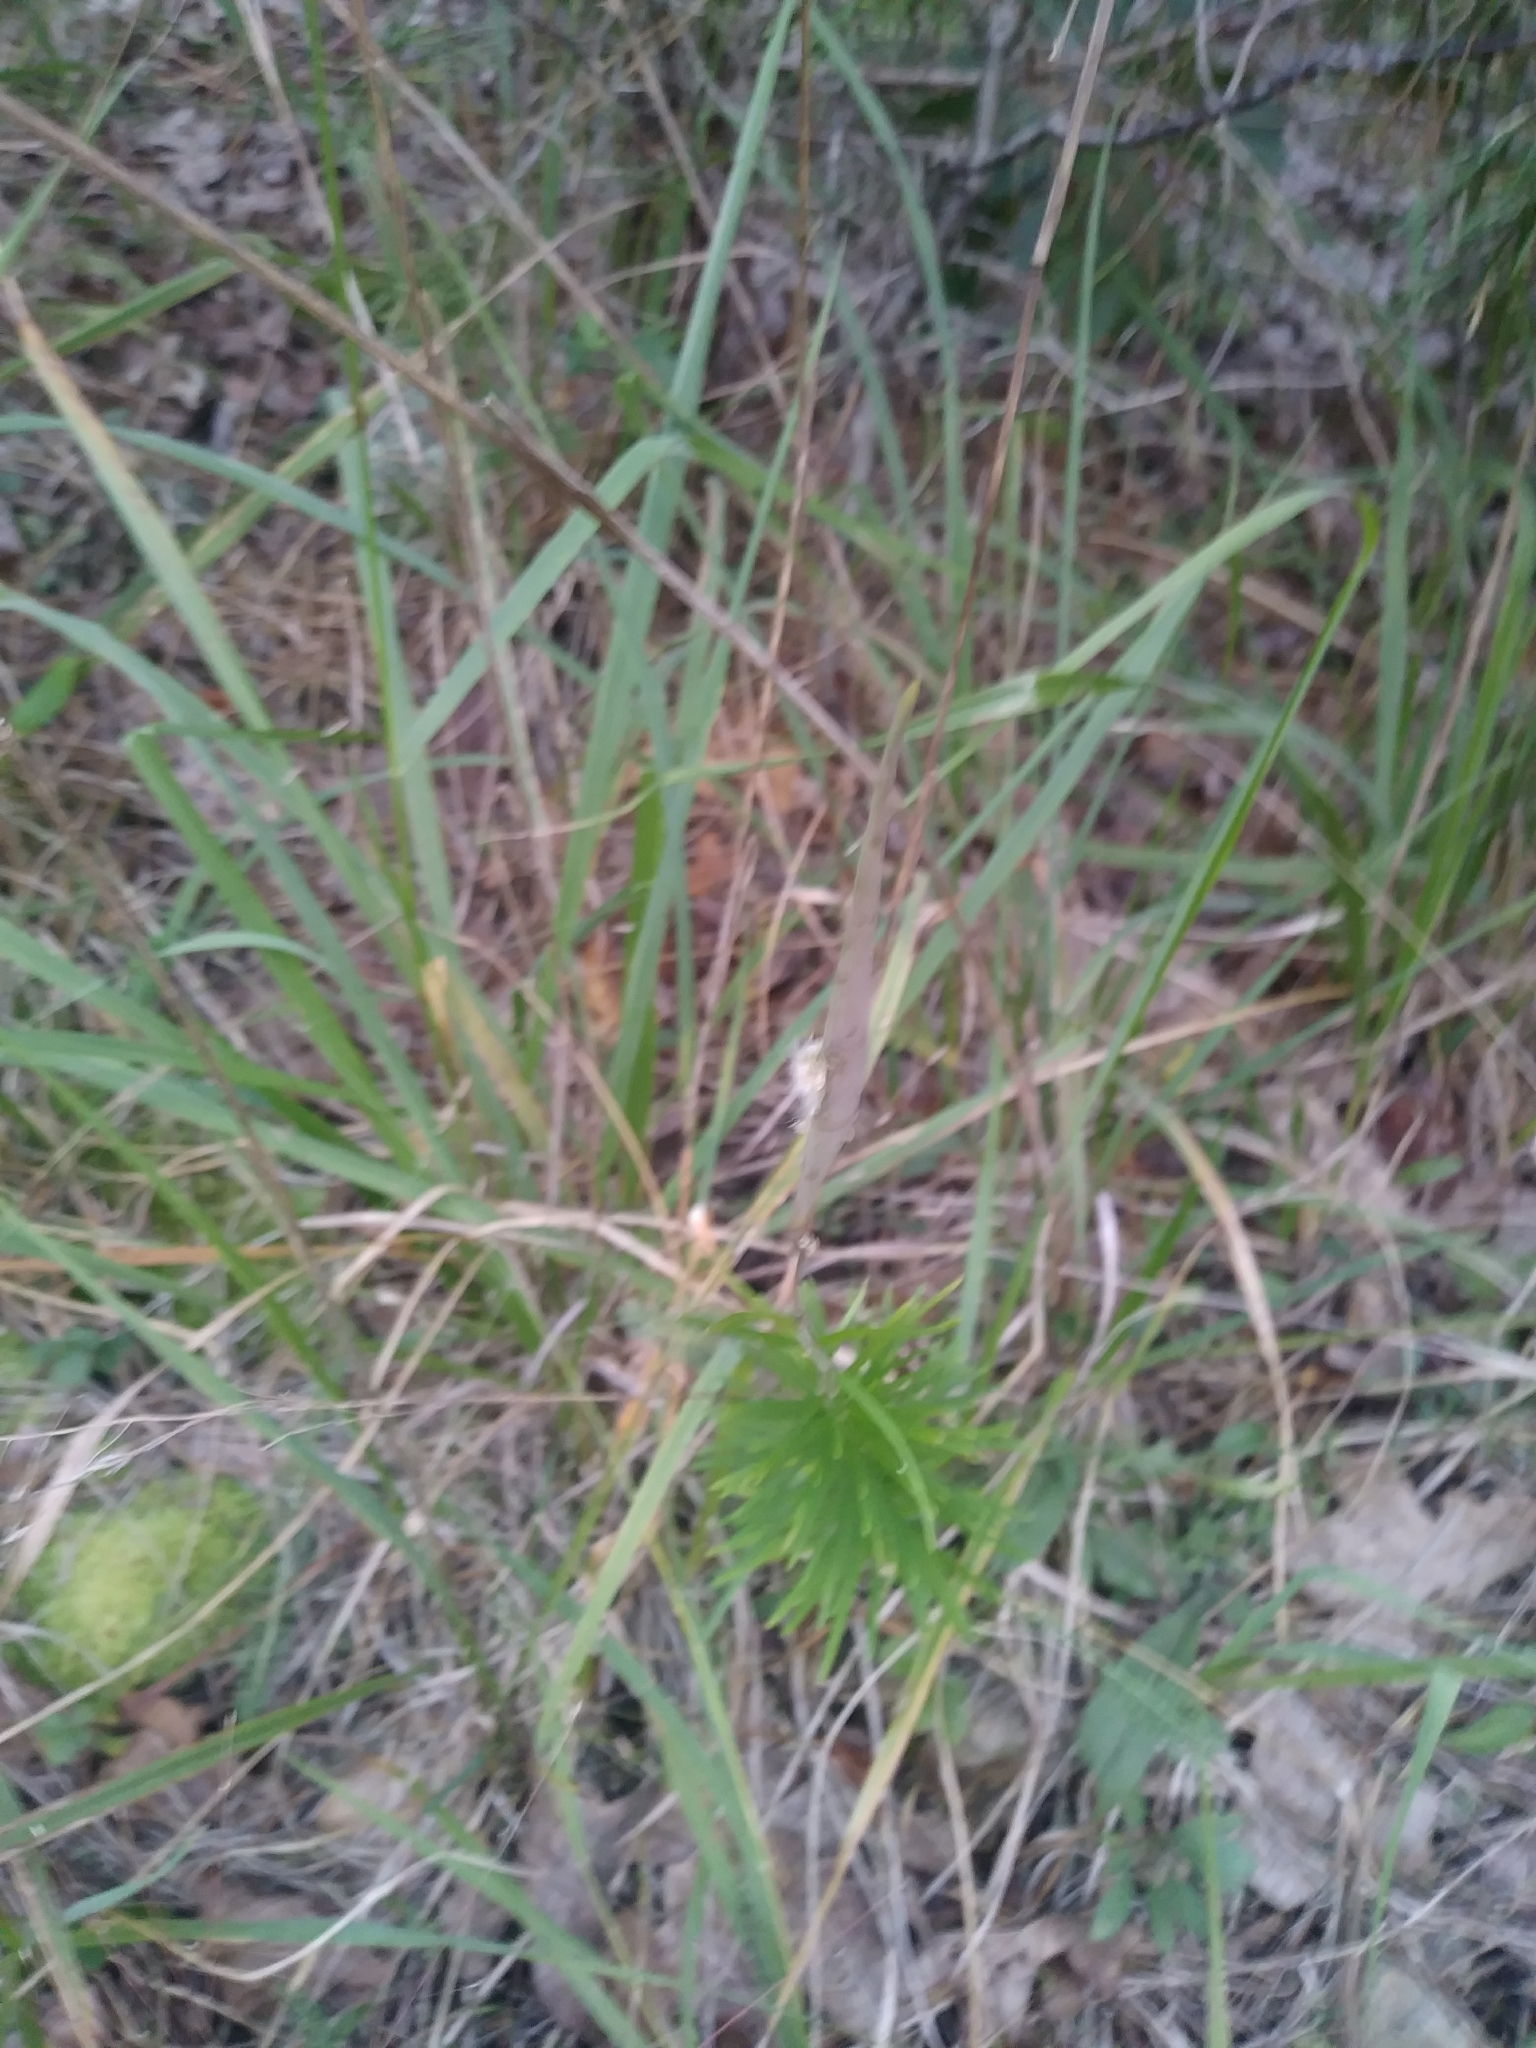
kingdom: Plantae
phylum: Tracheophyta
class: Magnoliopsida
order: Gentianales
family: Apocynaceae
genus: Asclepias
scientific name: Asclepias verticillata
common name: Eastern whorled milkweed
